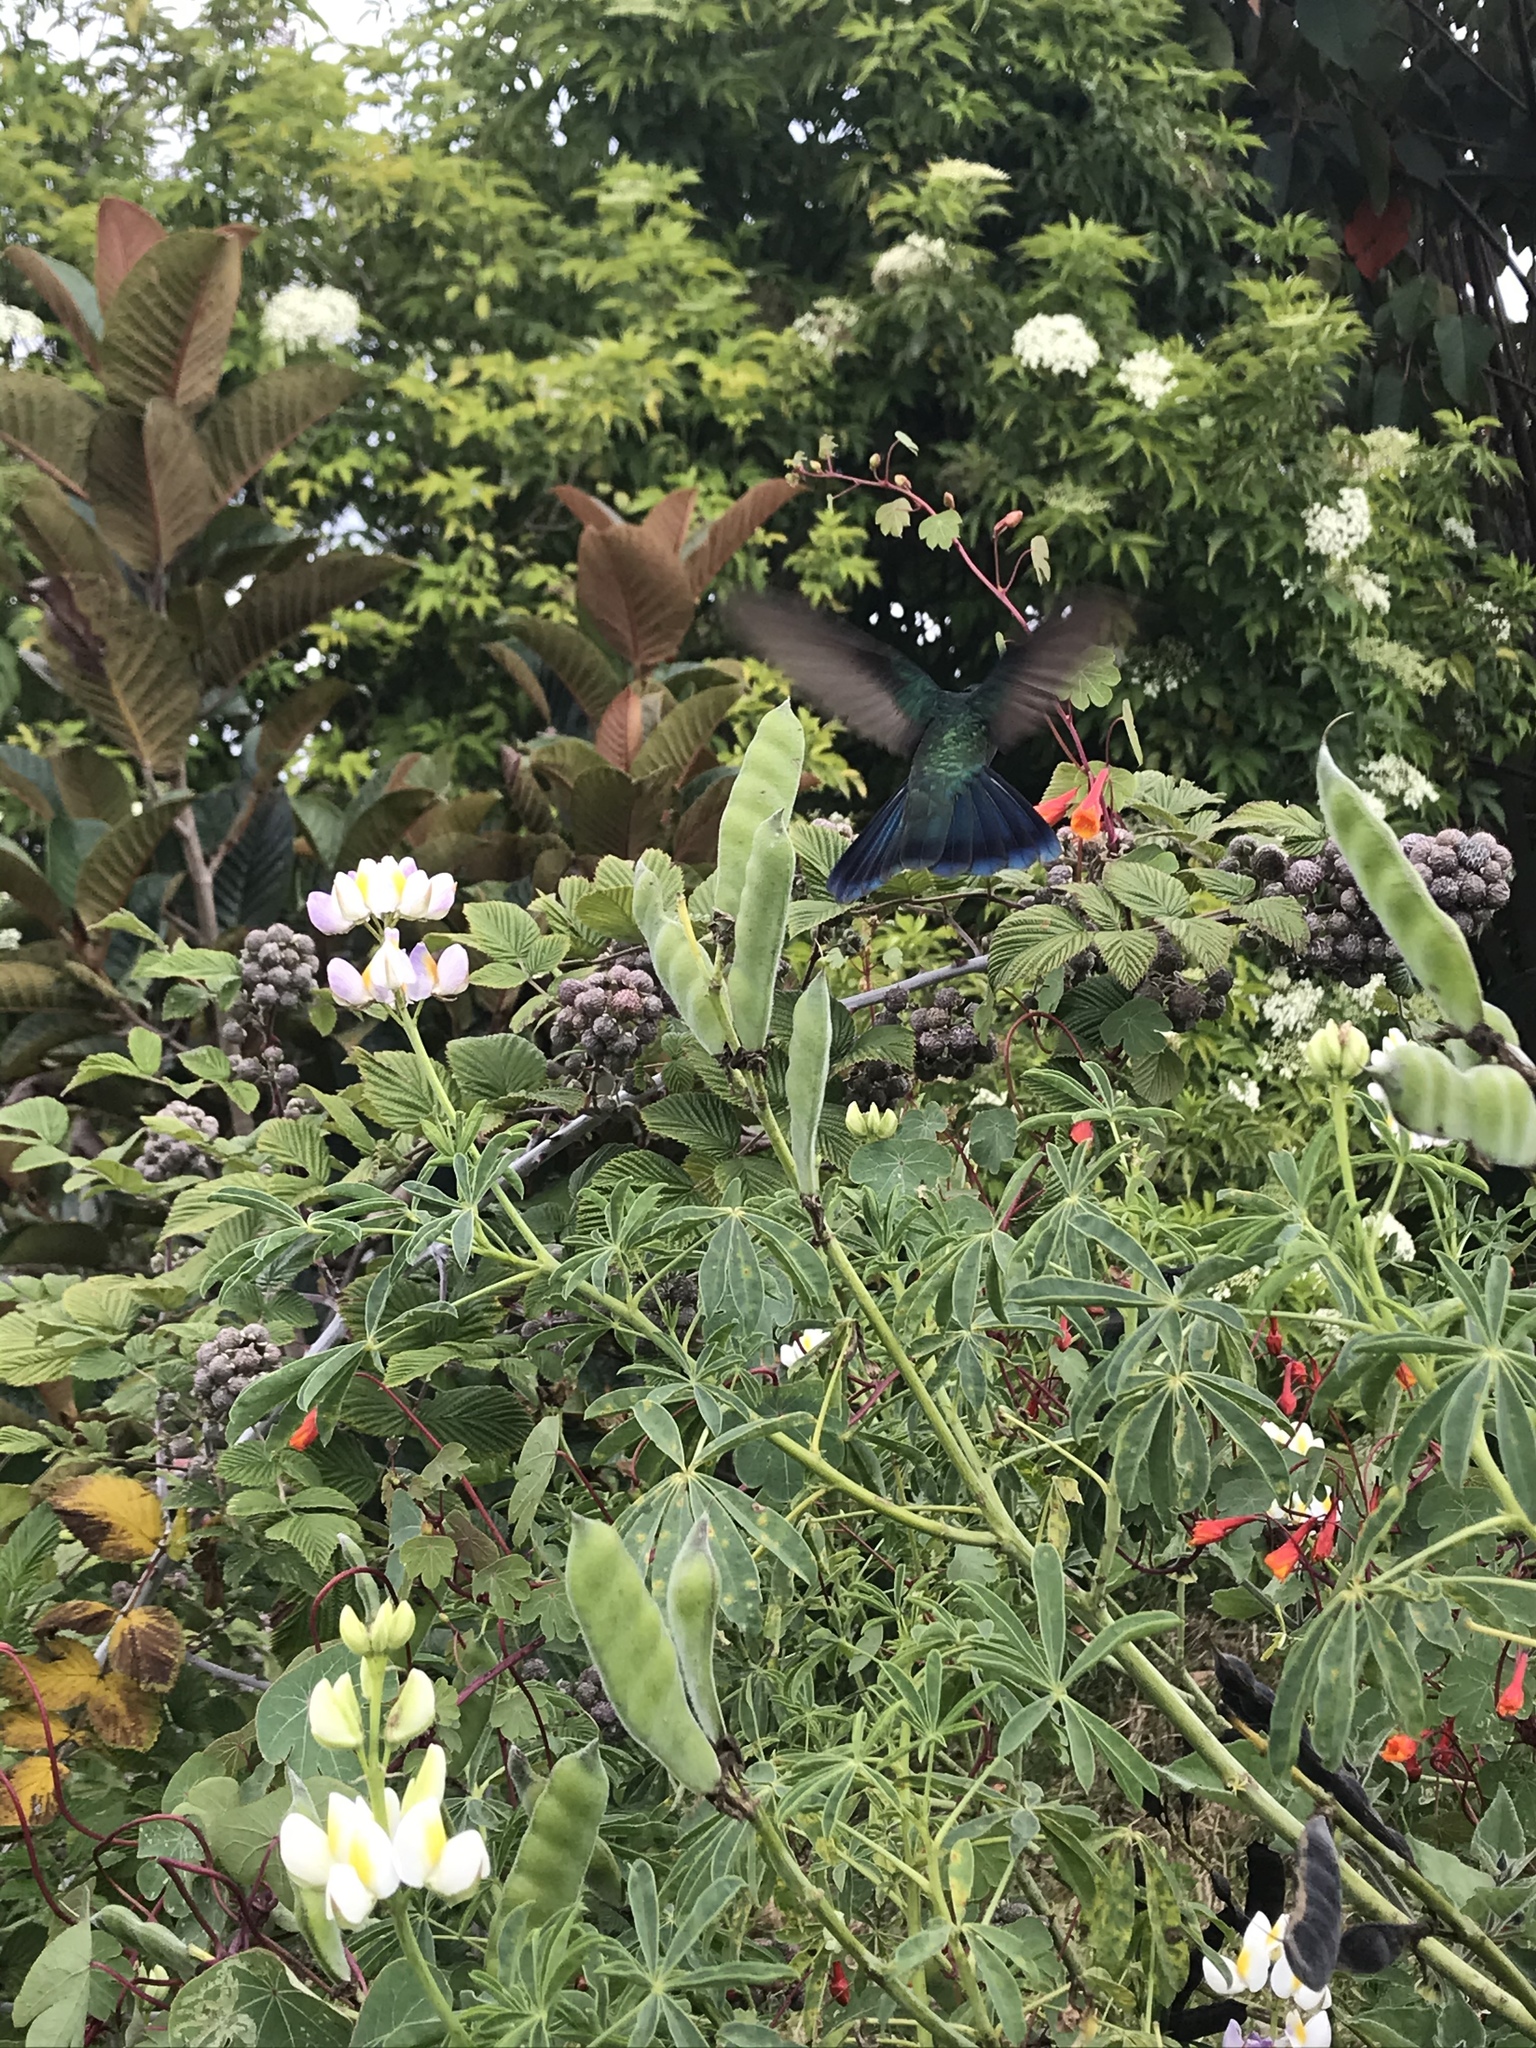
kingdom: Animalia
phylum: Chordata
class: Aves
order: Apodiformes
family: Trochilidae
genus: Colibri
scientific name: Colibri coruscans
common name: Sparkling violetear
